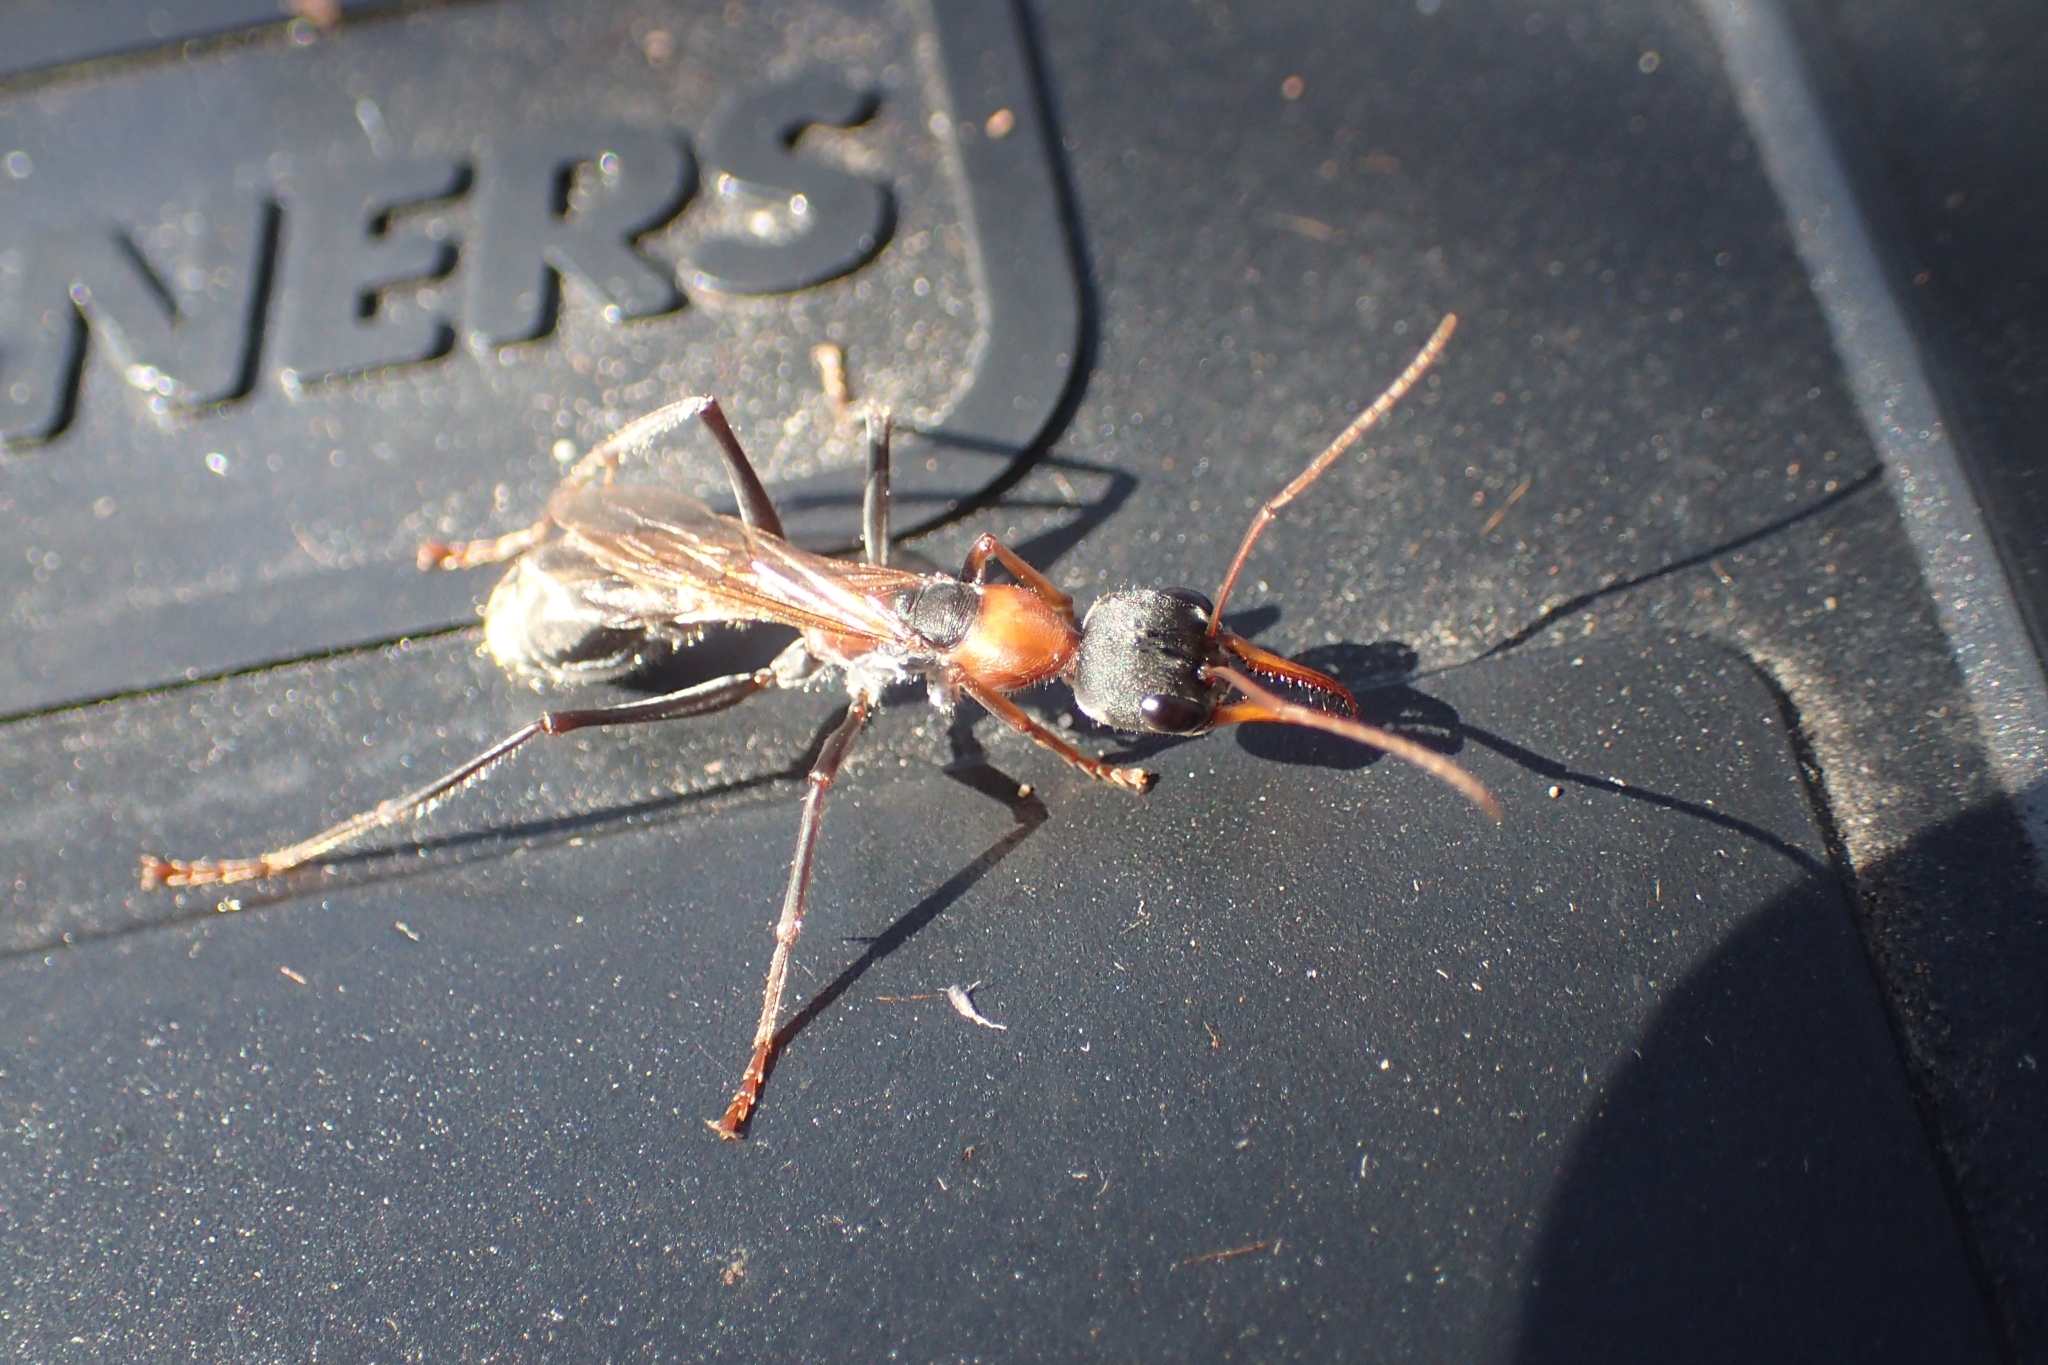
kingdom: Animalia
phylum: Arthropoda
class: Insecta
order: Hymenoptera
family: Formicidae
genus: Myrmecia
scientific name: Myrmecia nigrocincta
